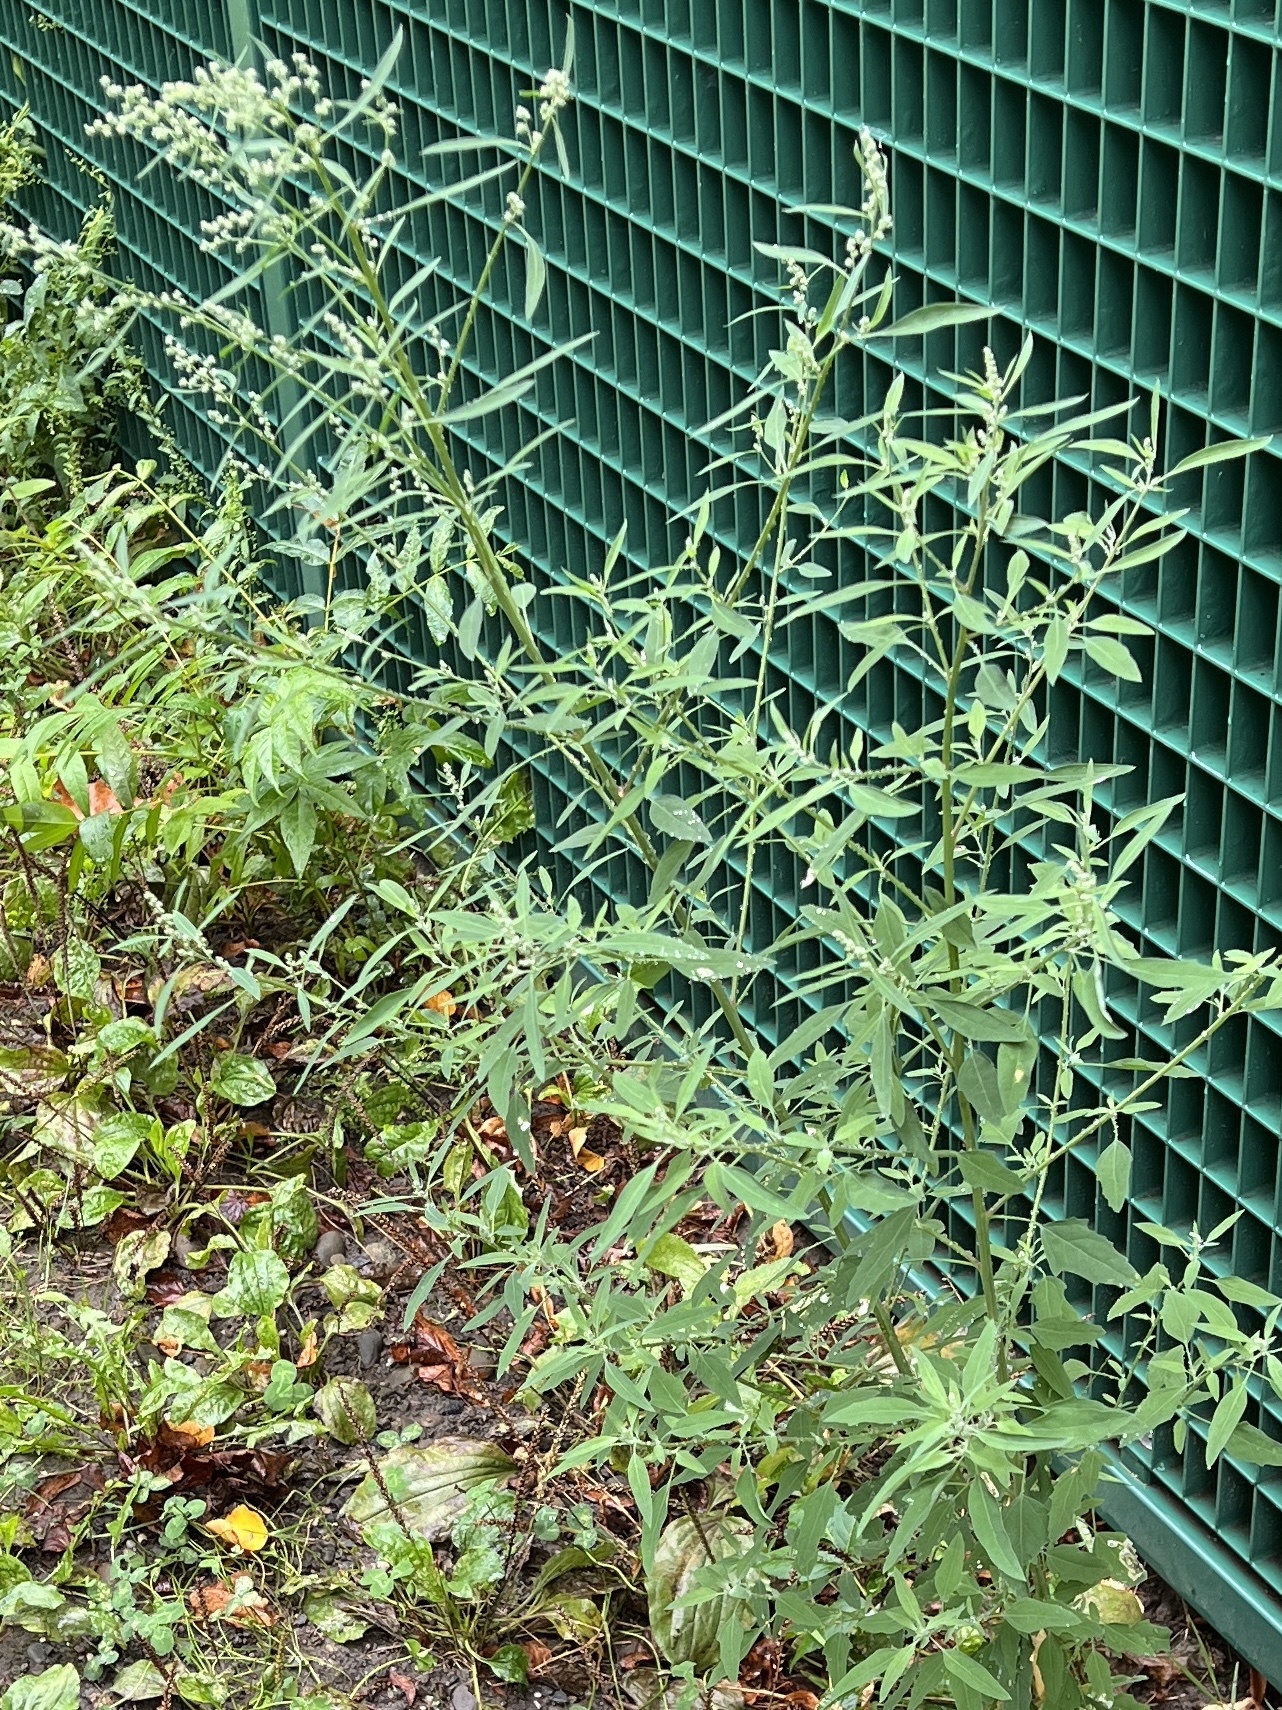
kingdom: Plantae
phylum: Tracheophyta
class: Magnoliopsida
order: Caryophyllales
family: Amaranthaceae
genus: Chenopodium
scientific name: Chenopodium album
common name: Fat-hen
